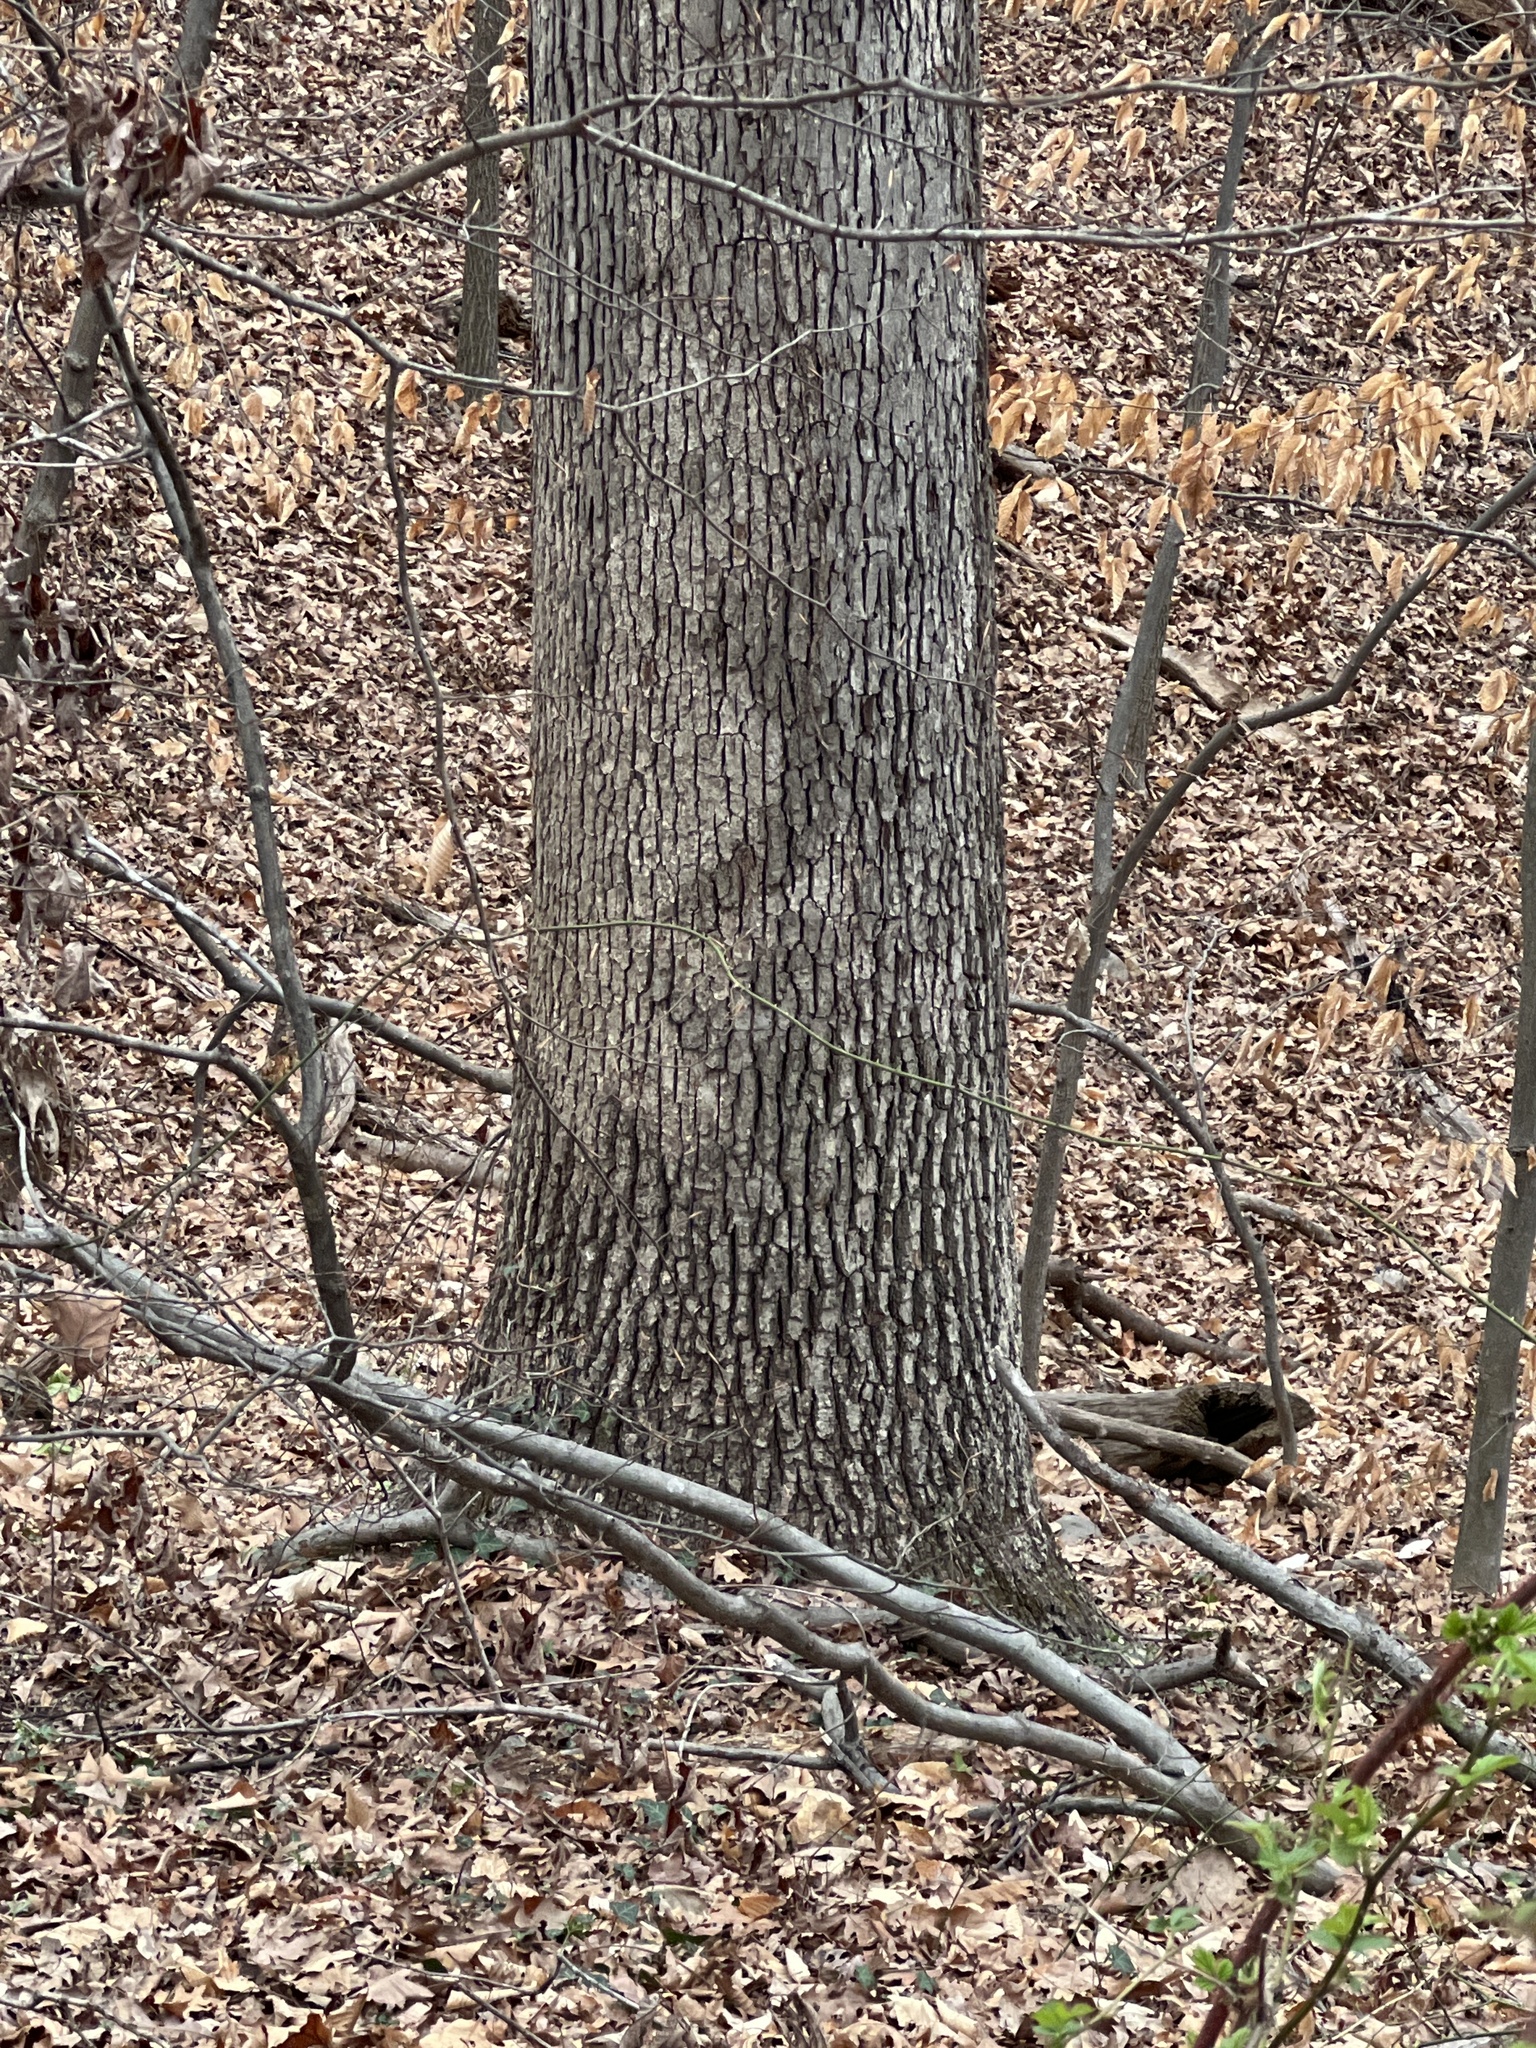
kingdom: Plantae
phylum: Tracheophyta
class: Magnoliopsida
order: Fagales
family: Fagaceae
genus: Quercus
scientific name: Quercus alba
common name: White oak
